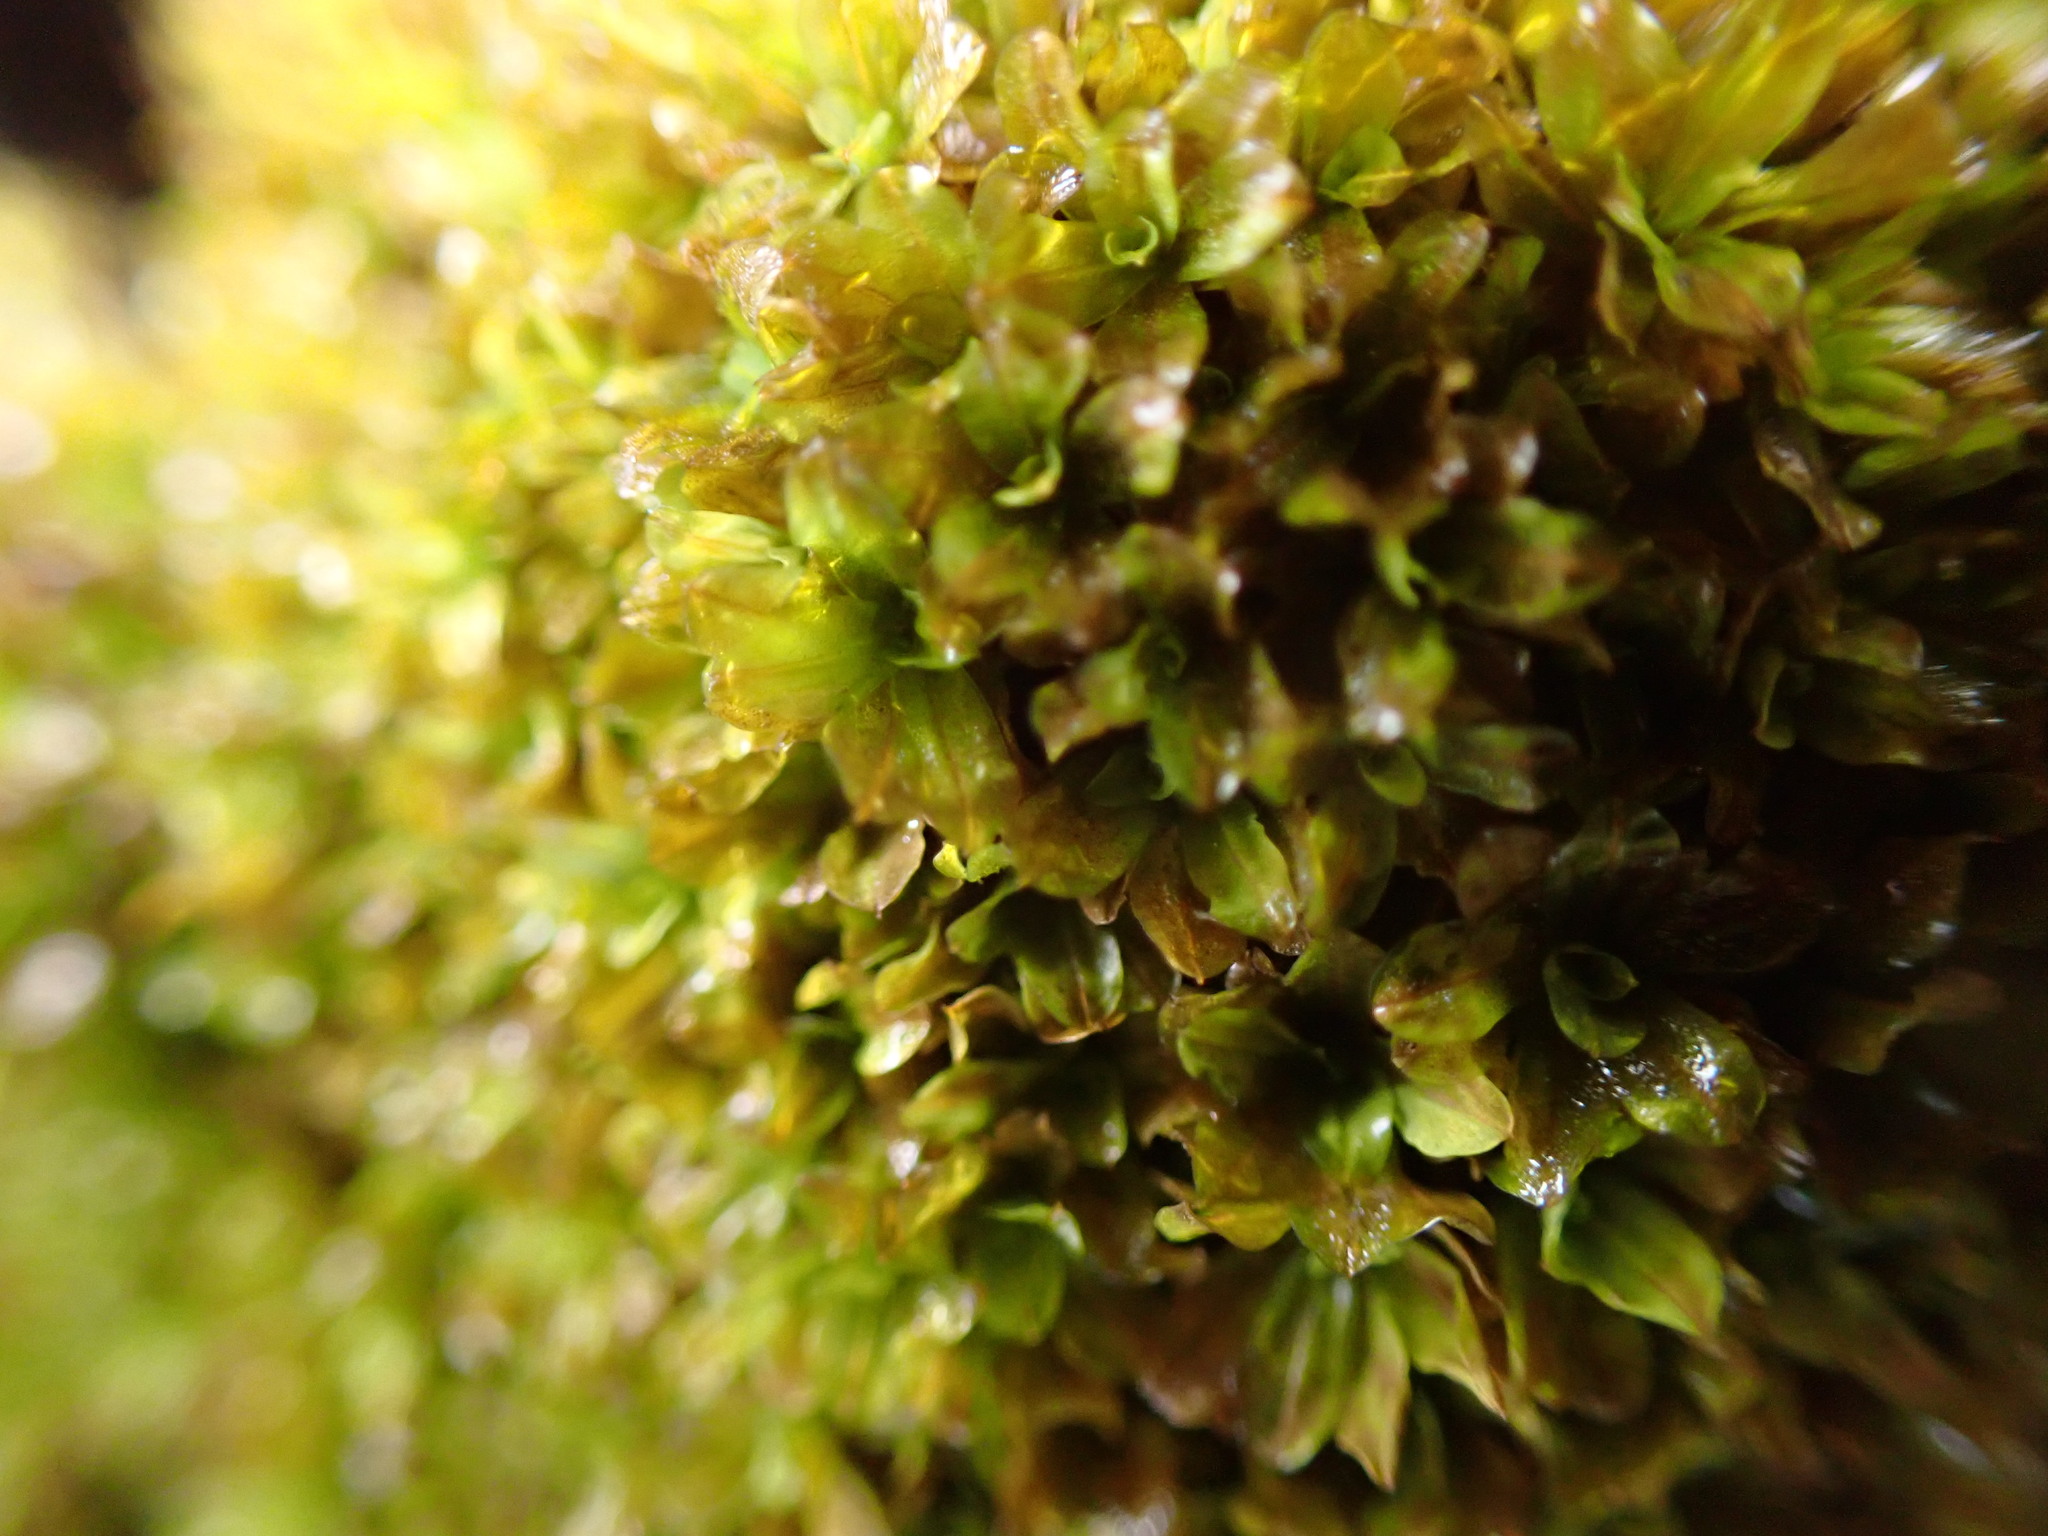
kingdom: Plantae
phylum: Bryophyta
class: Bryopsida
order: Pottiales
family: Pottiaceae
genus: Syntrichia
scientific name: Syntrichia latifolia
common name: Water screw-moss
